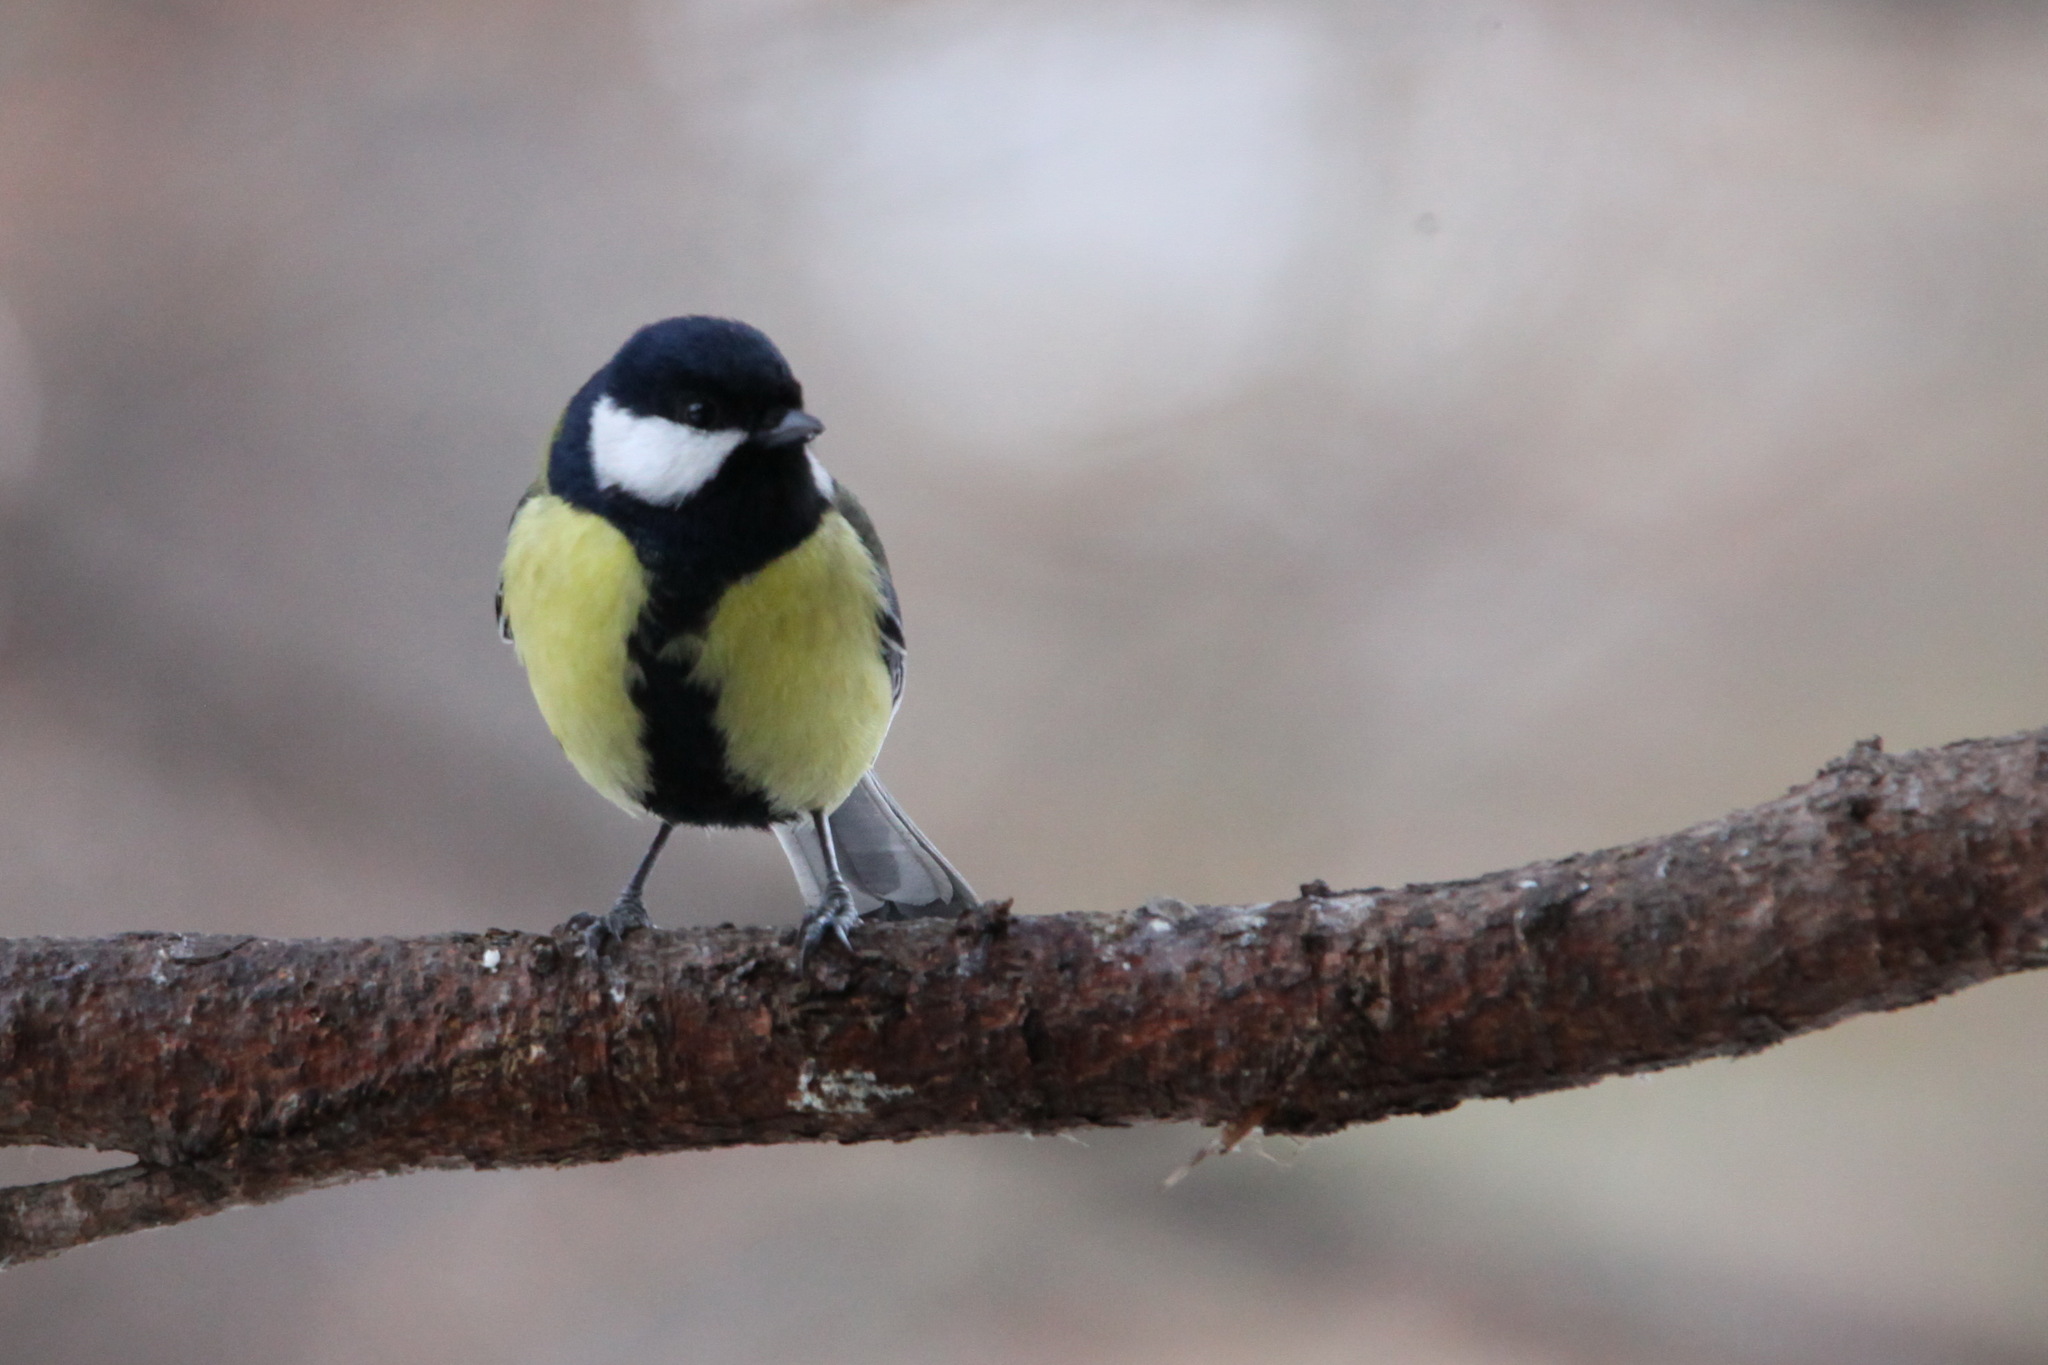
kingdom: Animalia
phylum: Chordata
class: Aves
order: Passeriformes
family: Paridae
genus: Parus
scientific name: Parus major
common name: Great tit
